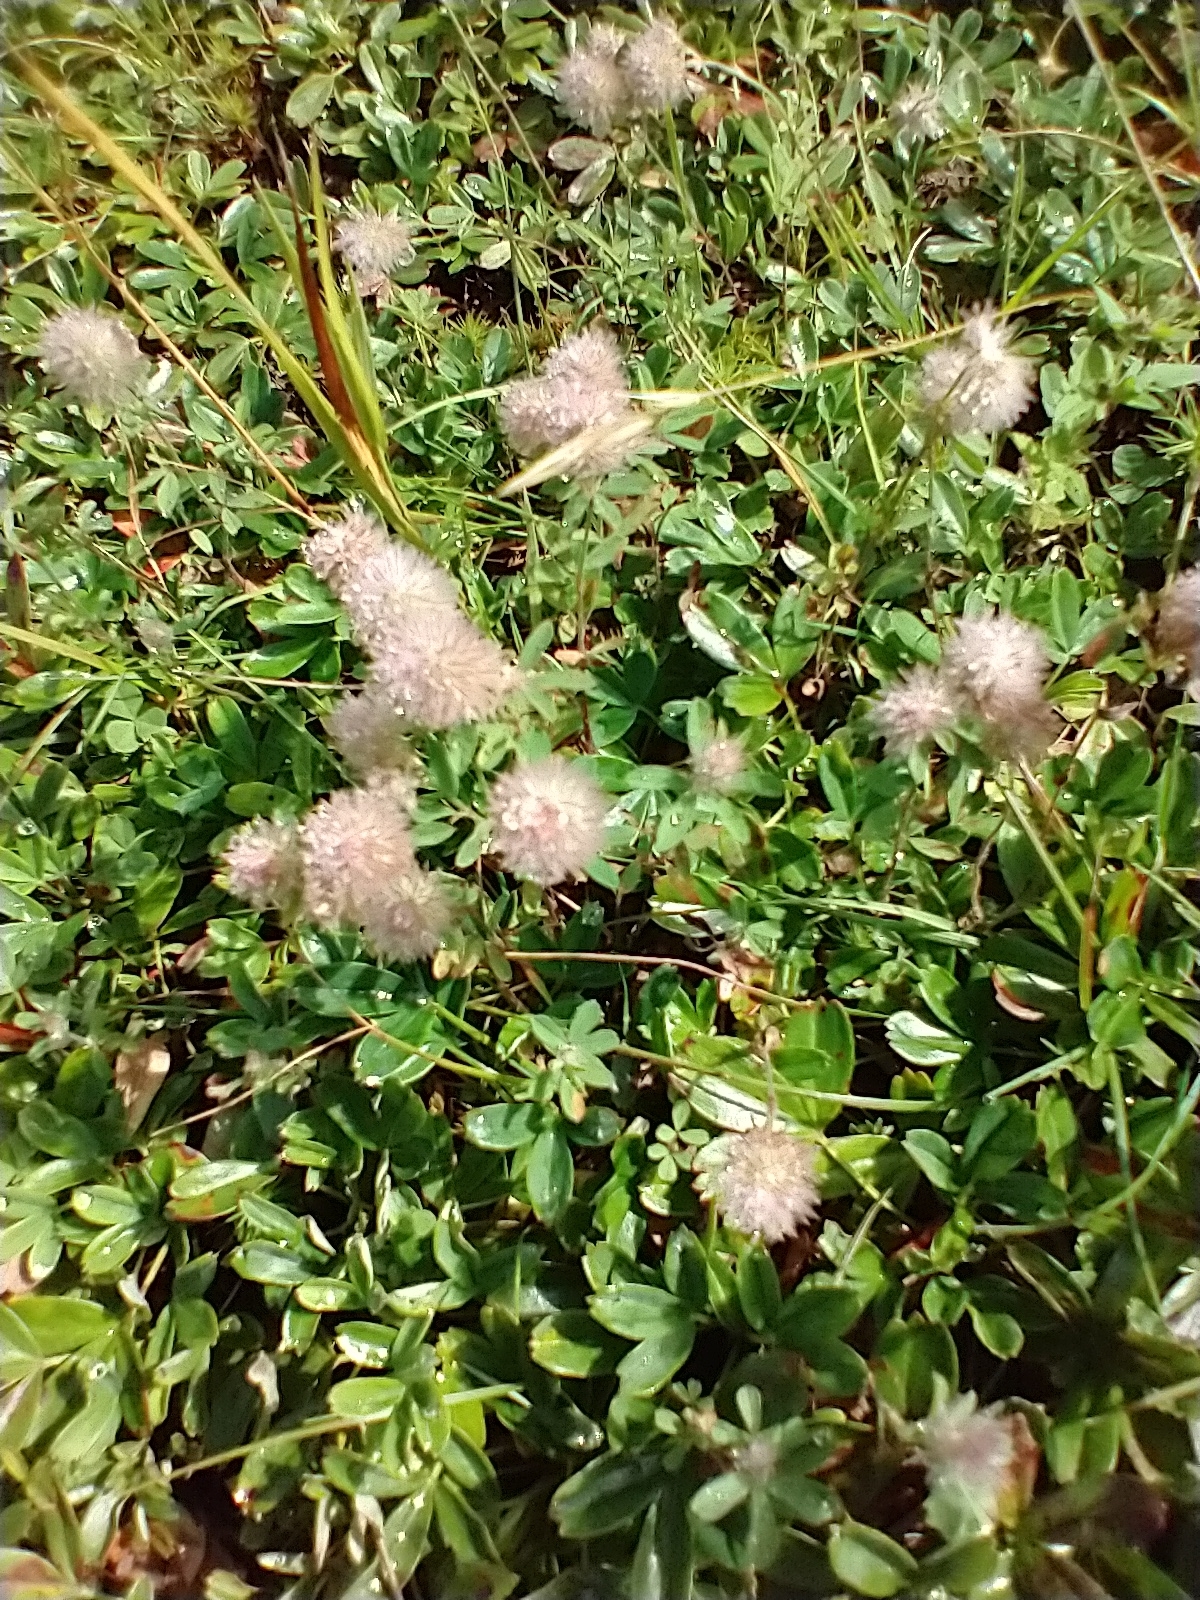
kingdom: Plantae
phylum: Tracheophyta
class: Magnoliopsida
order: Fabales
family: Fabaceae
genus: Trifolium
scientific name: Trifolium arvense
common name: Hare's-foot clover
